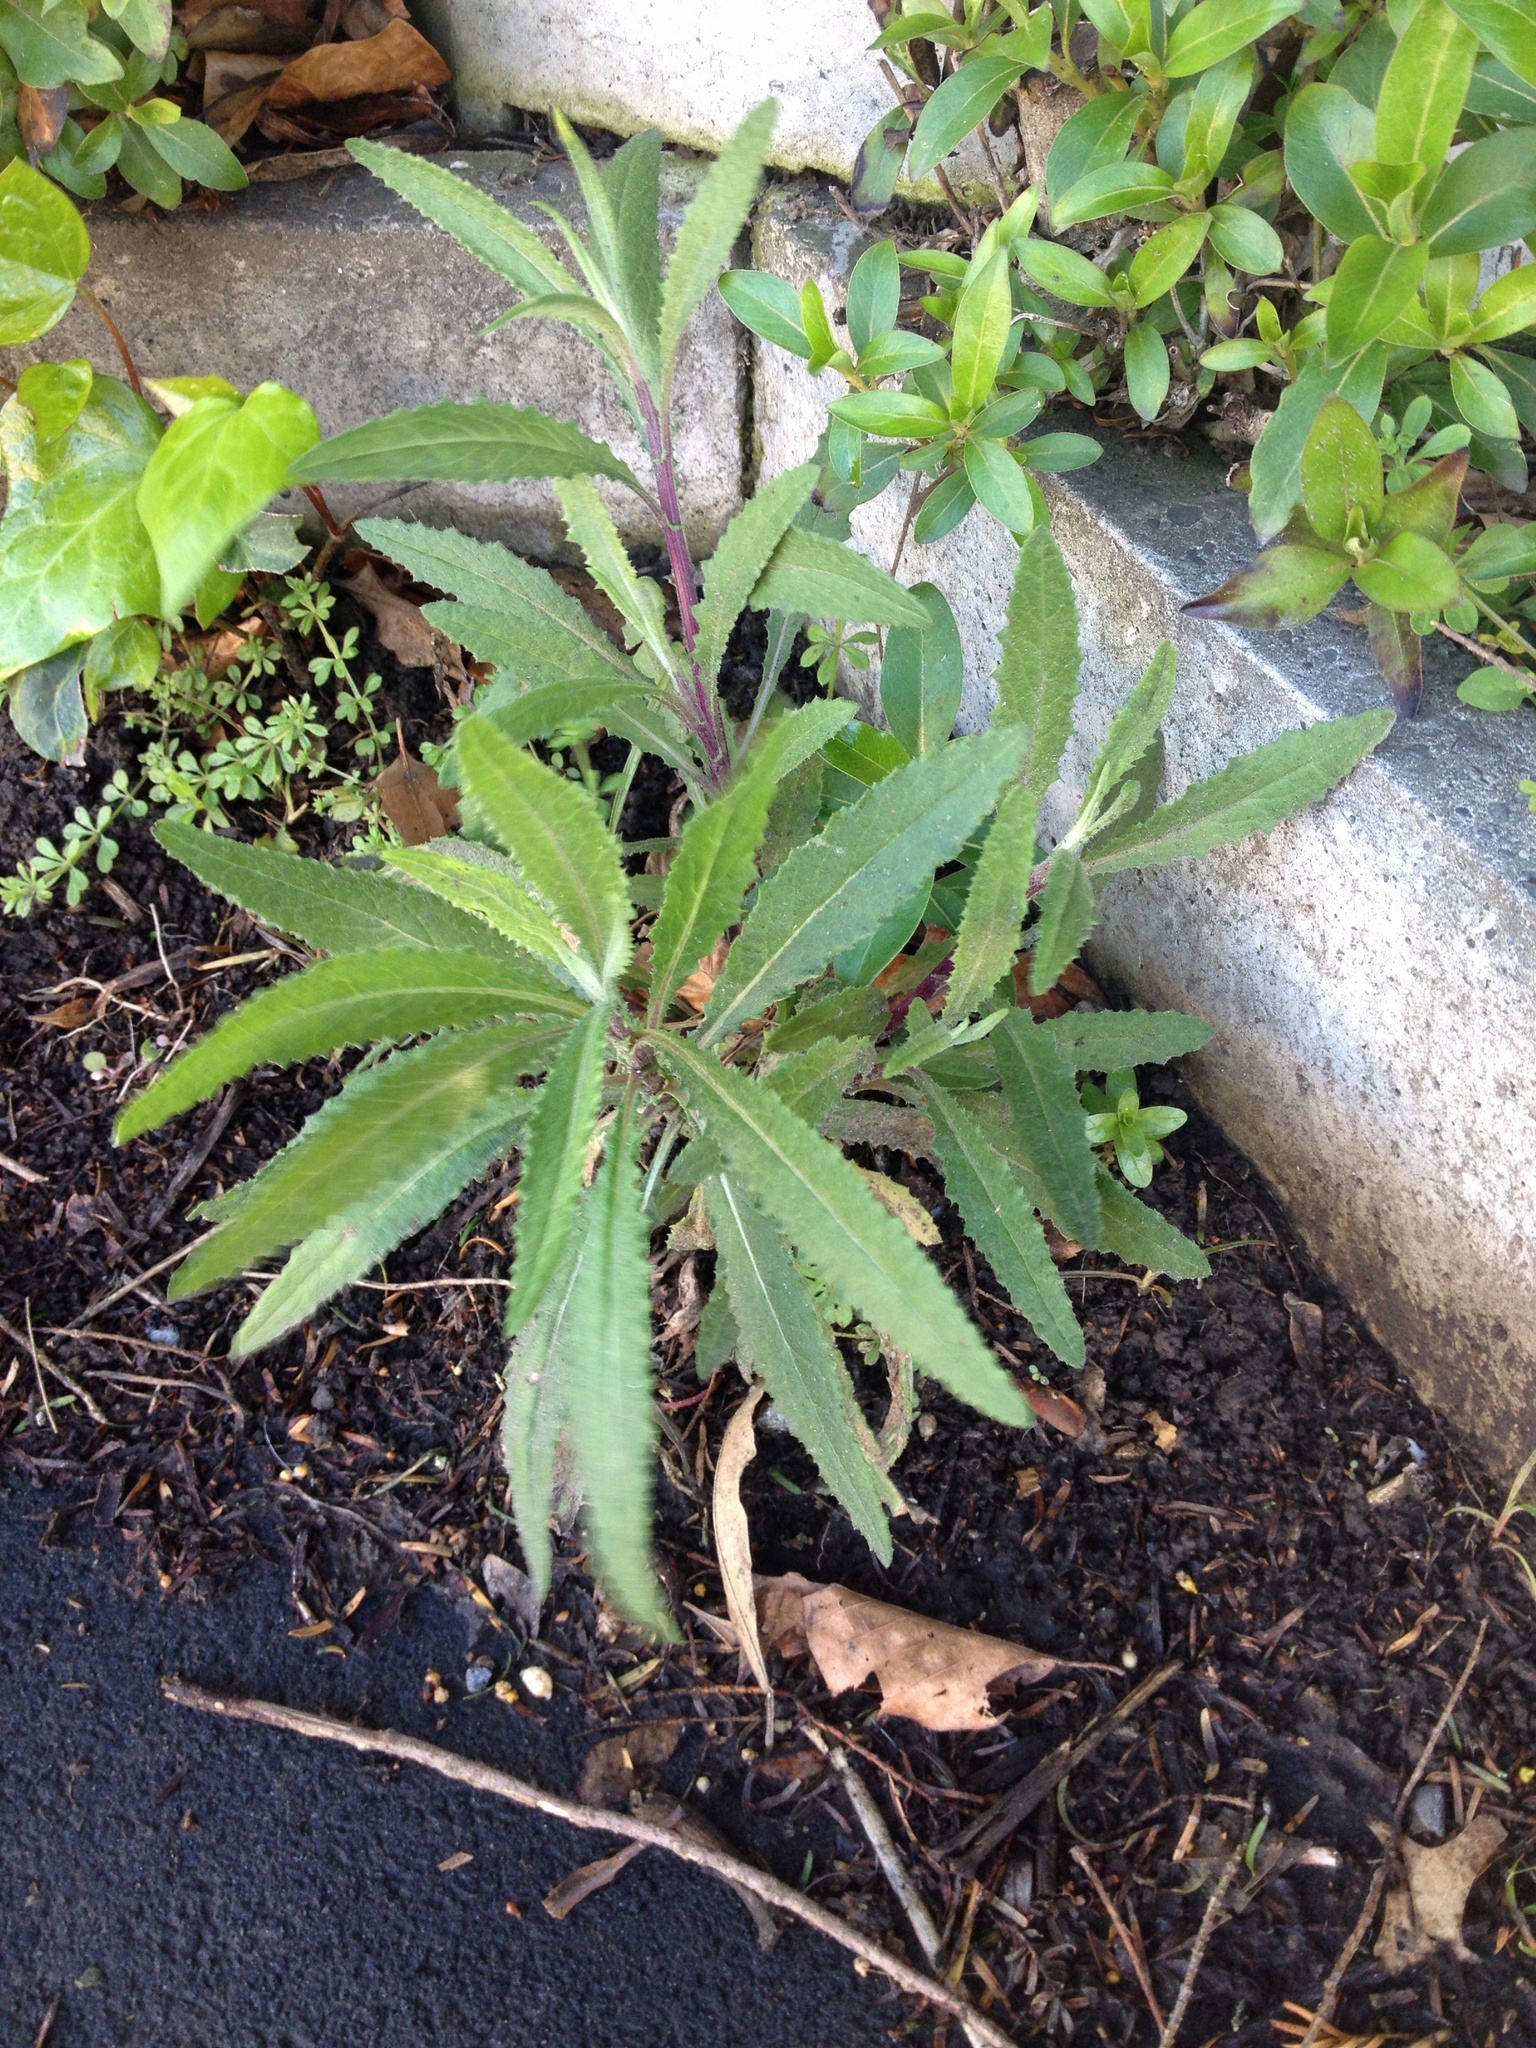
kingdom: Plantae
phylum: Tracheophyta
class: Magnoliopsida
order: Asterales
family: Asteraceae
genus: Senecio
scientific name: Senecio minimus
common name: Toothed fireweed
